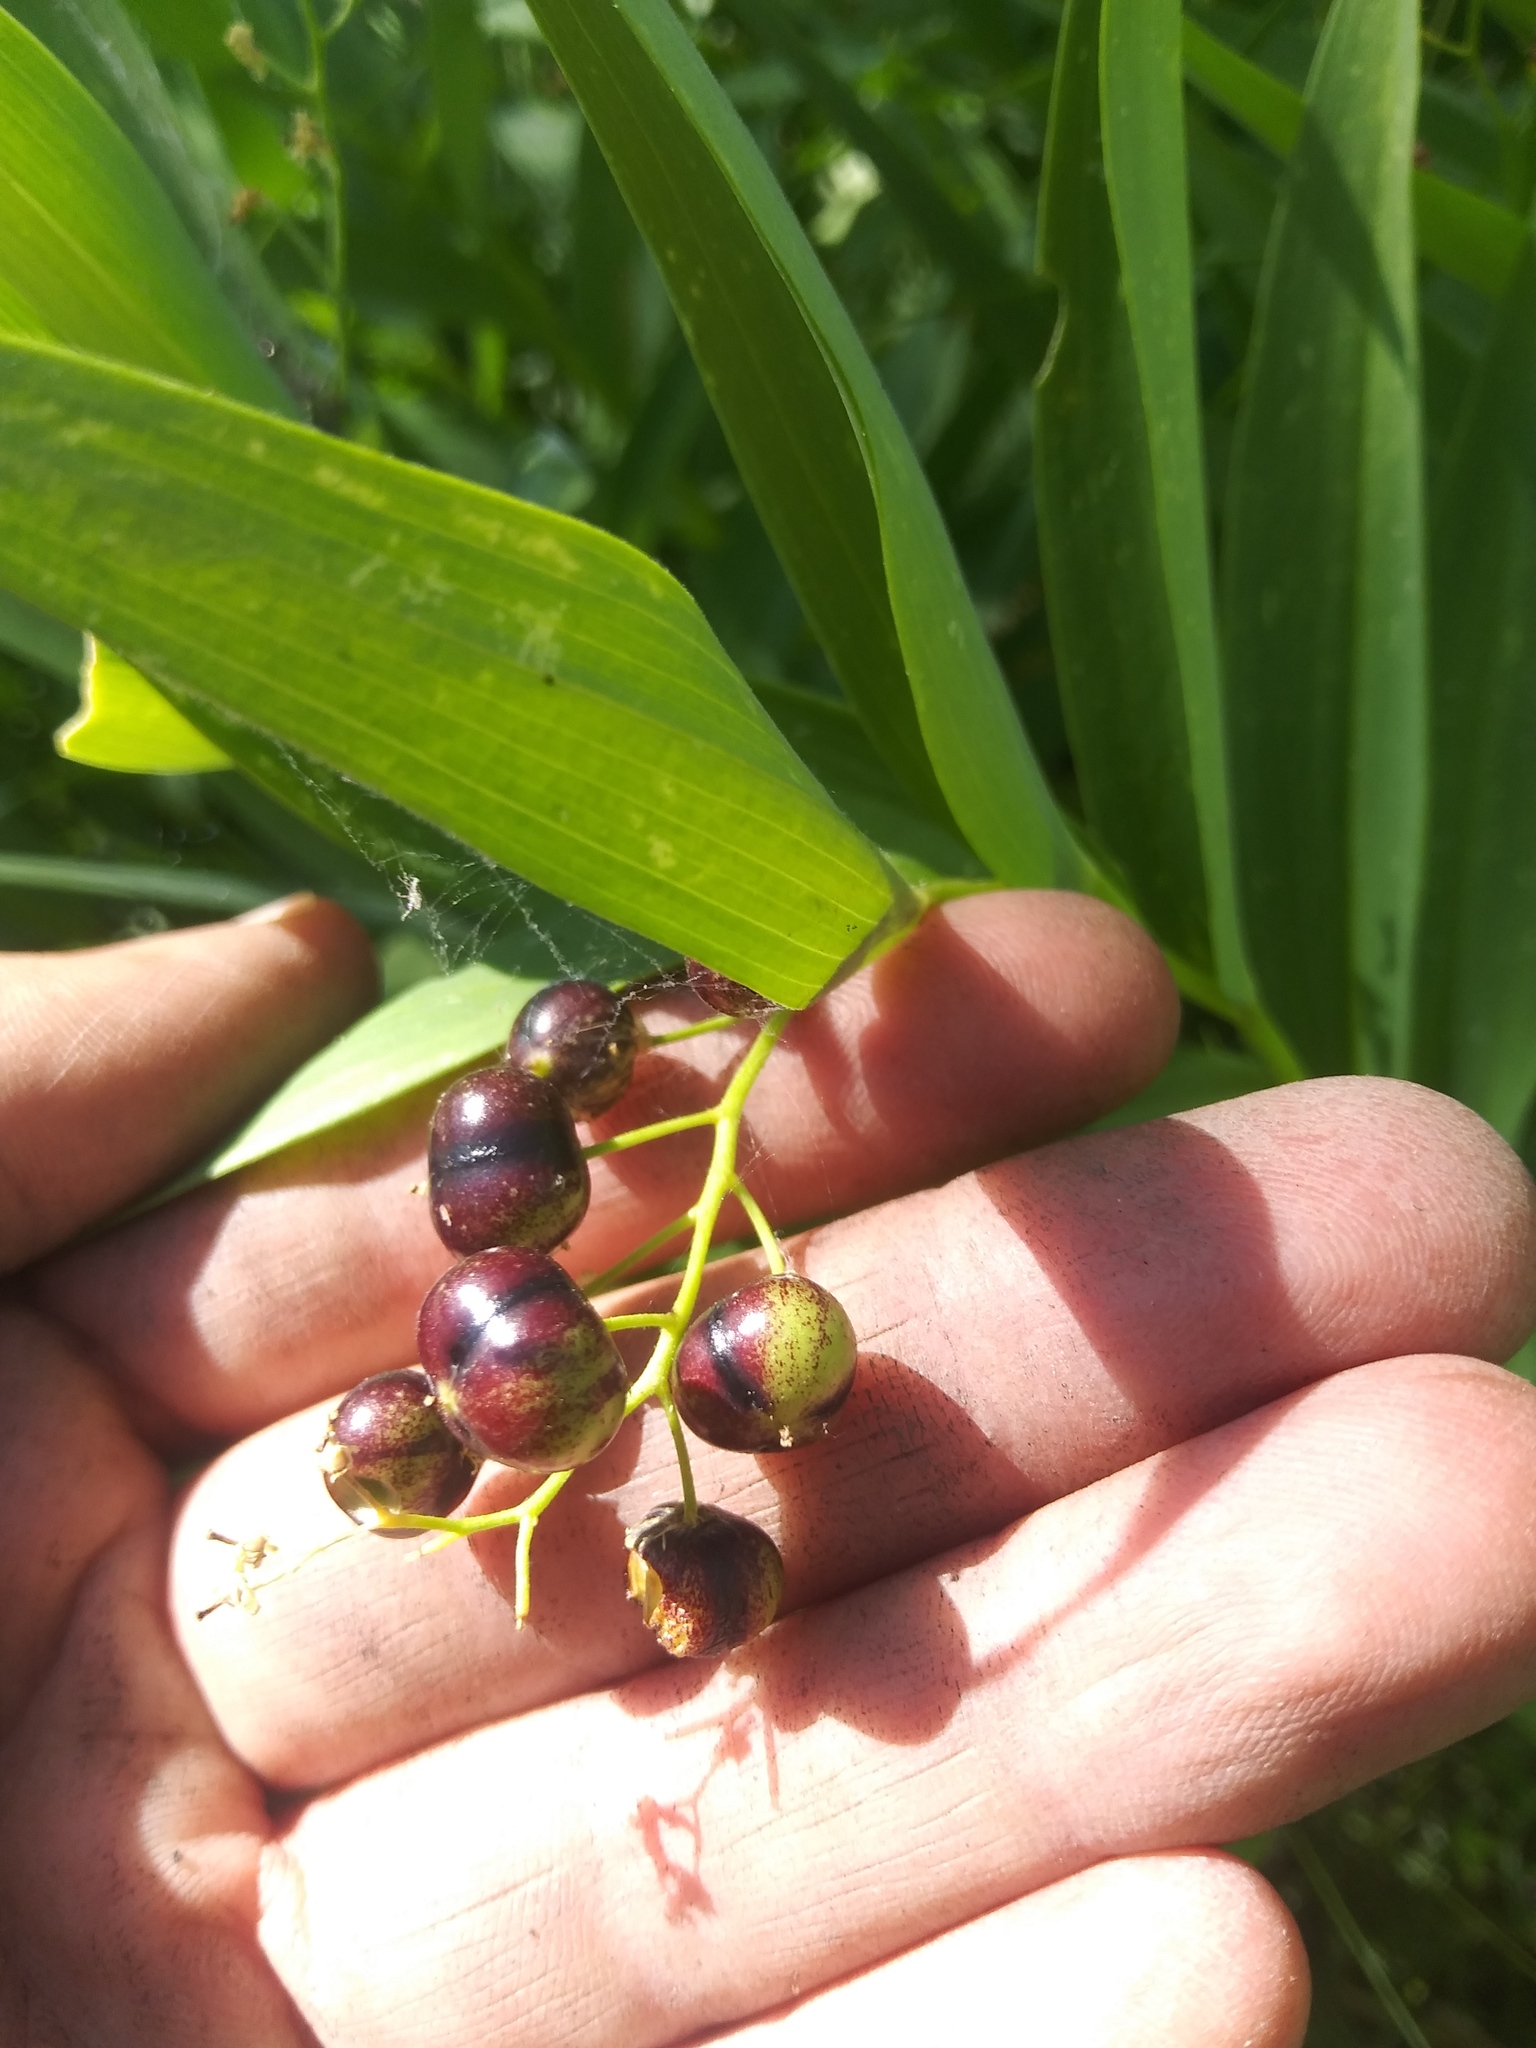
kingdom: Plantae
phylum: Tracheophyta
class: Liliopsida
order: Asparagales
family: Asparagaceae
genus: Maianthemum
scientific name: Maianthemum stellatum
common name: Little false solomon's seal
